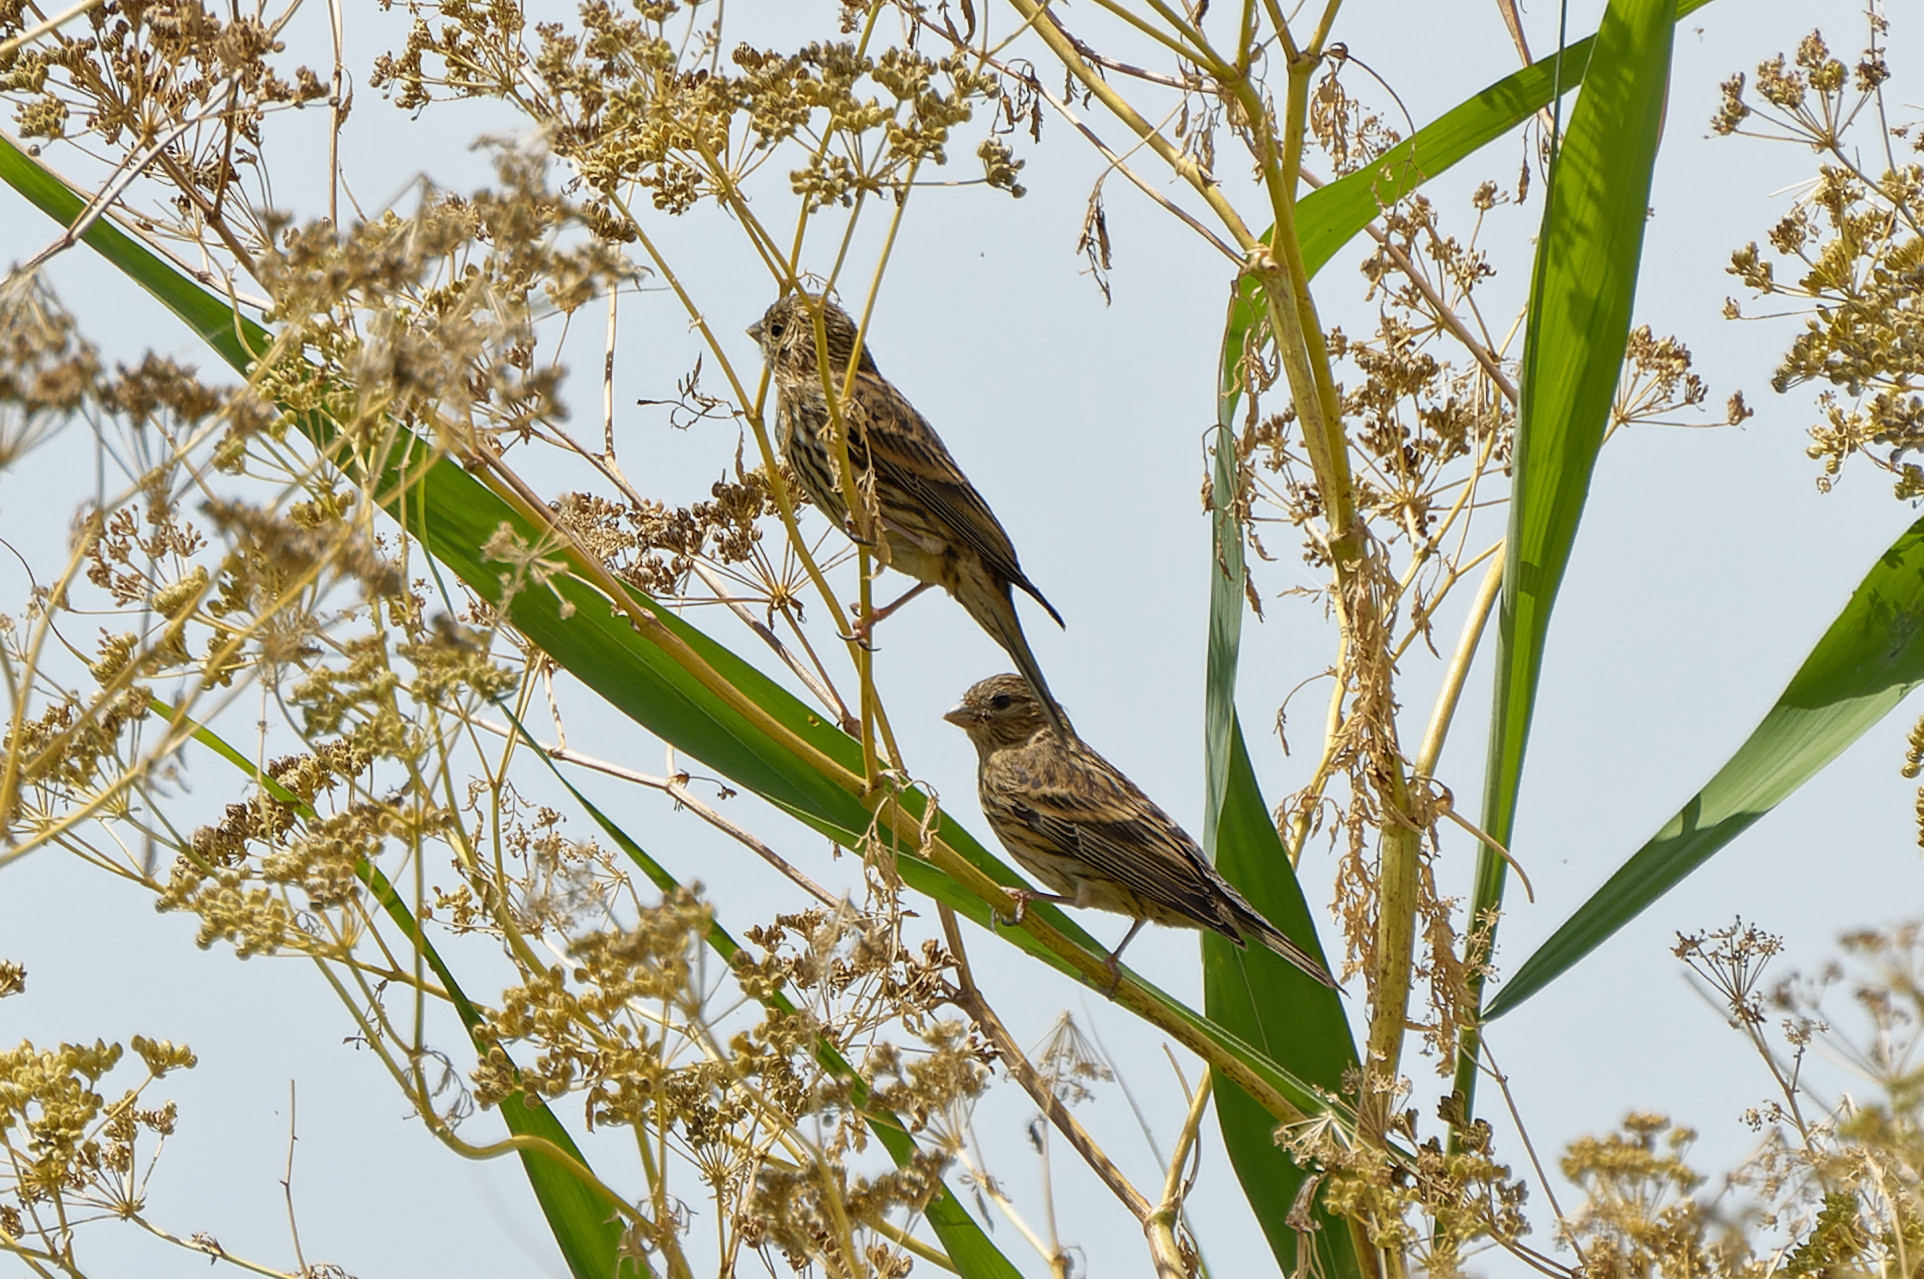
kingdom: Animalia
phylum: Chordata
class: Aves
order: Passeriformes
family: Fringillidae
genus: Serinus
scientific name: Serinus serinus
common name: European serin
